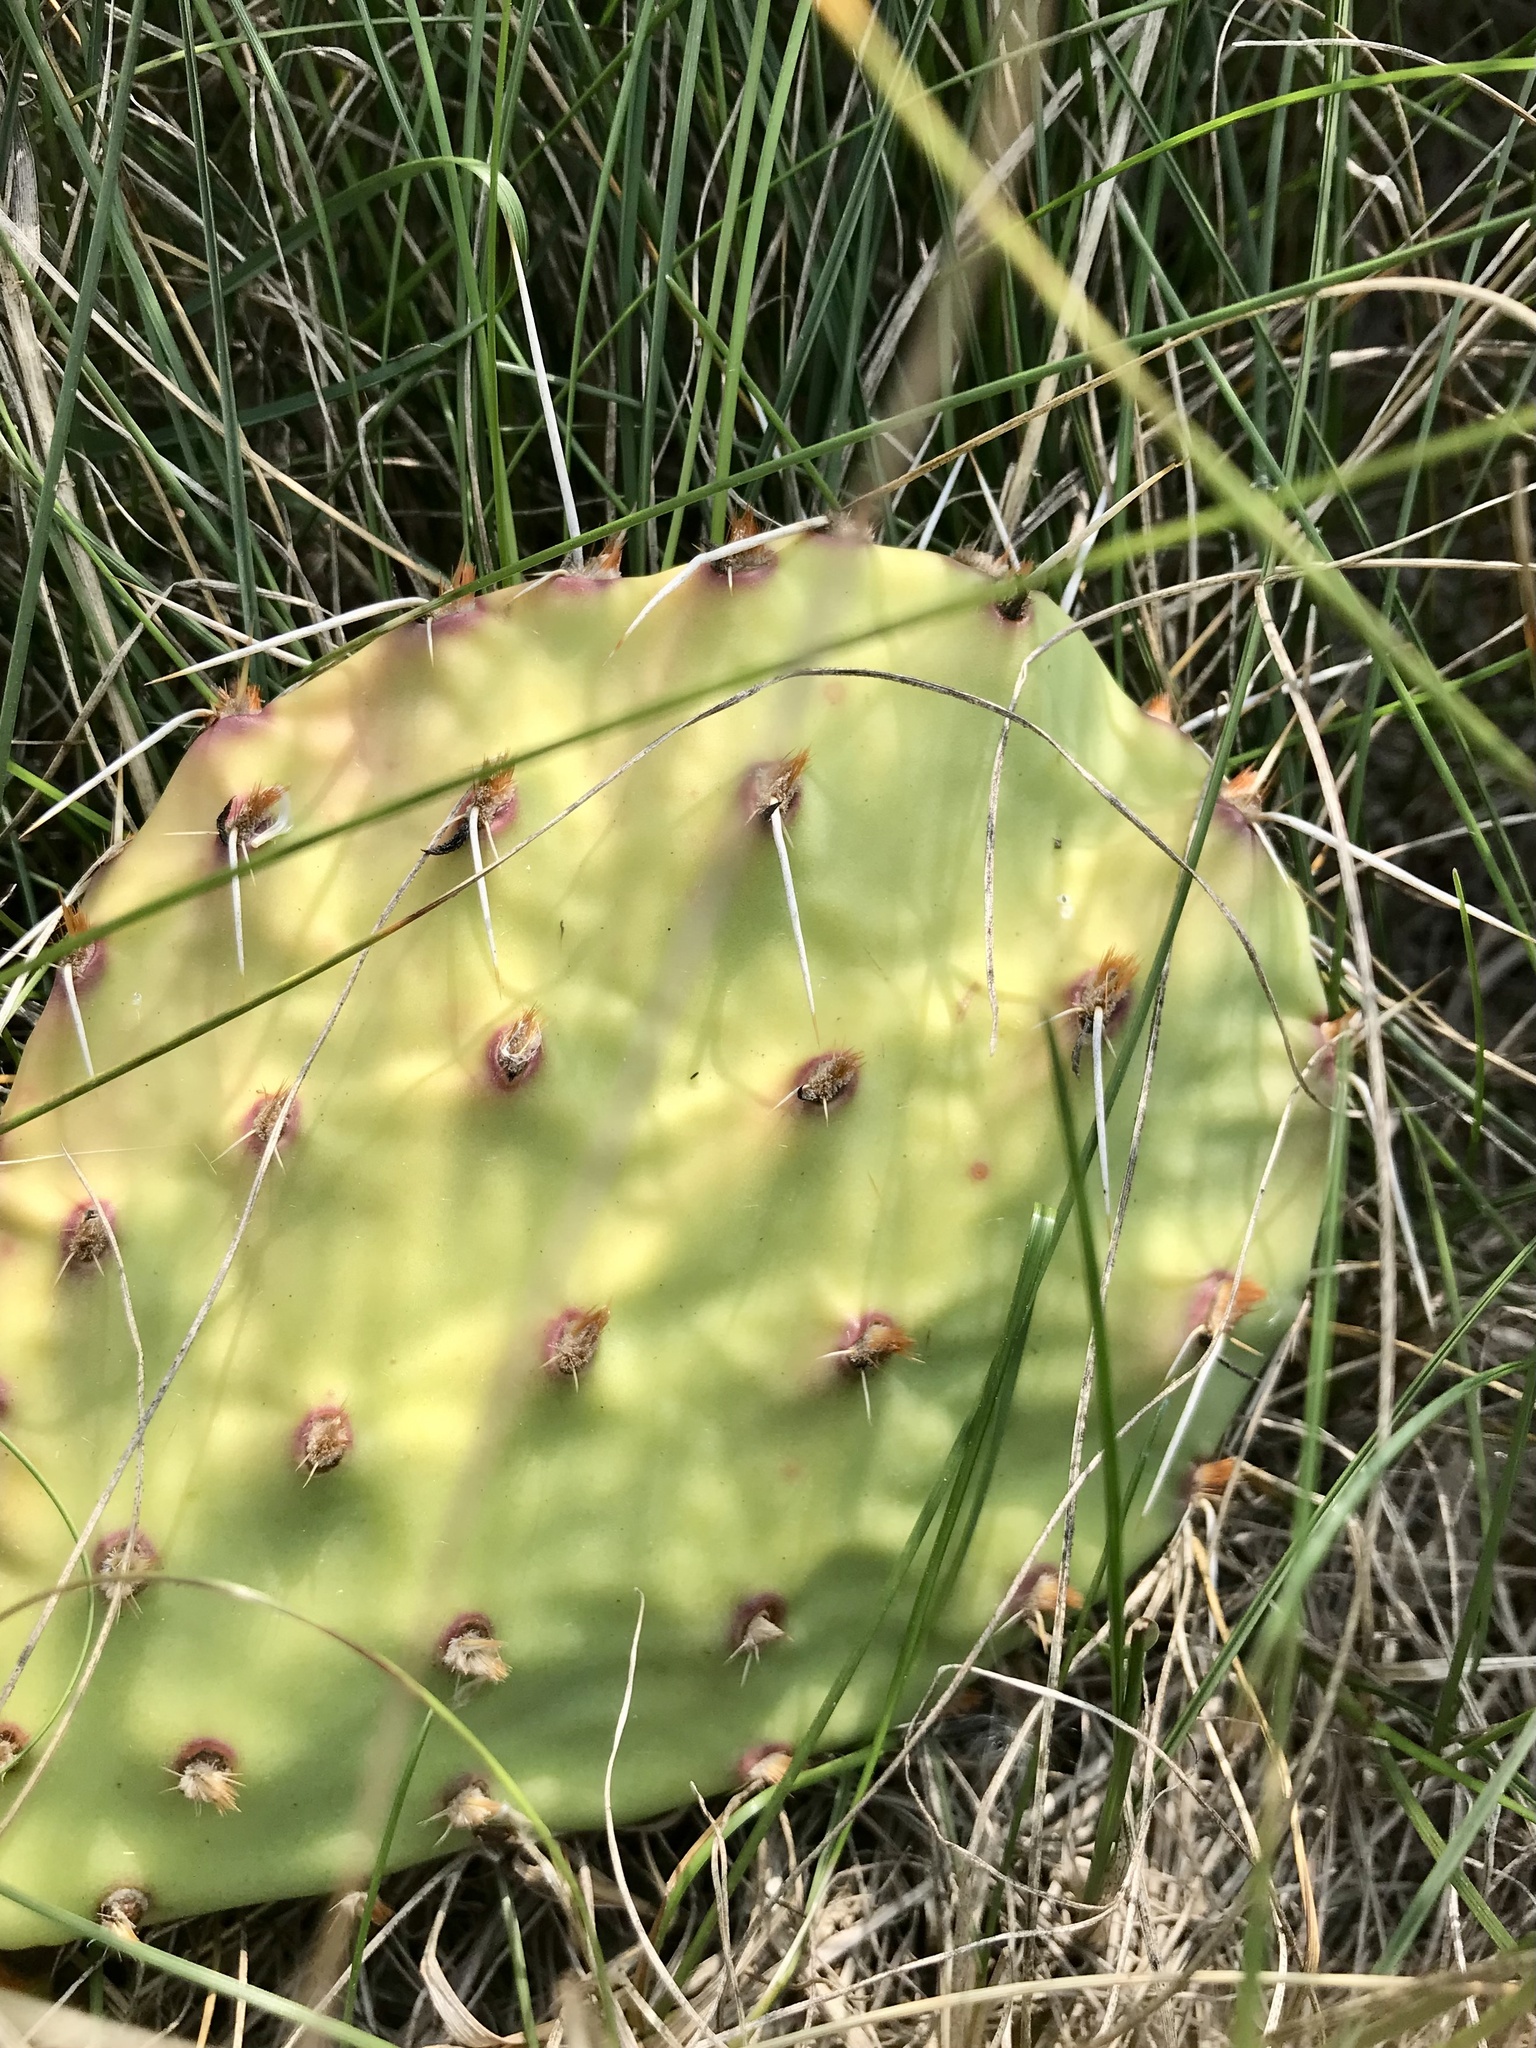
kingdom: Plantae
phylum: Tracheophyta
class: Magnoliopsida
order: Caryophyllales
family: Cactaceae
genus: Opuntia
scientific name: Opuntia macrorhiza
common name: Grassland pricklypear
